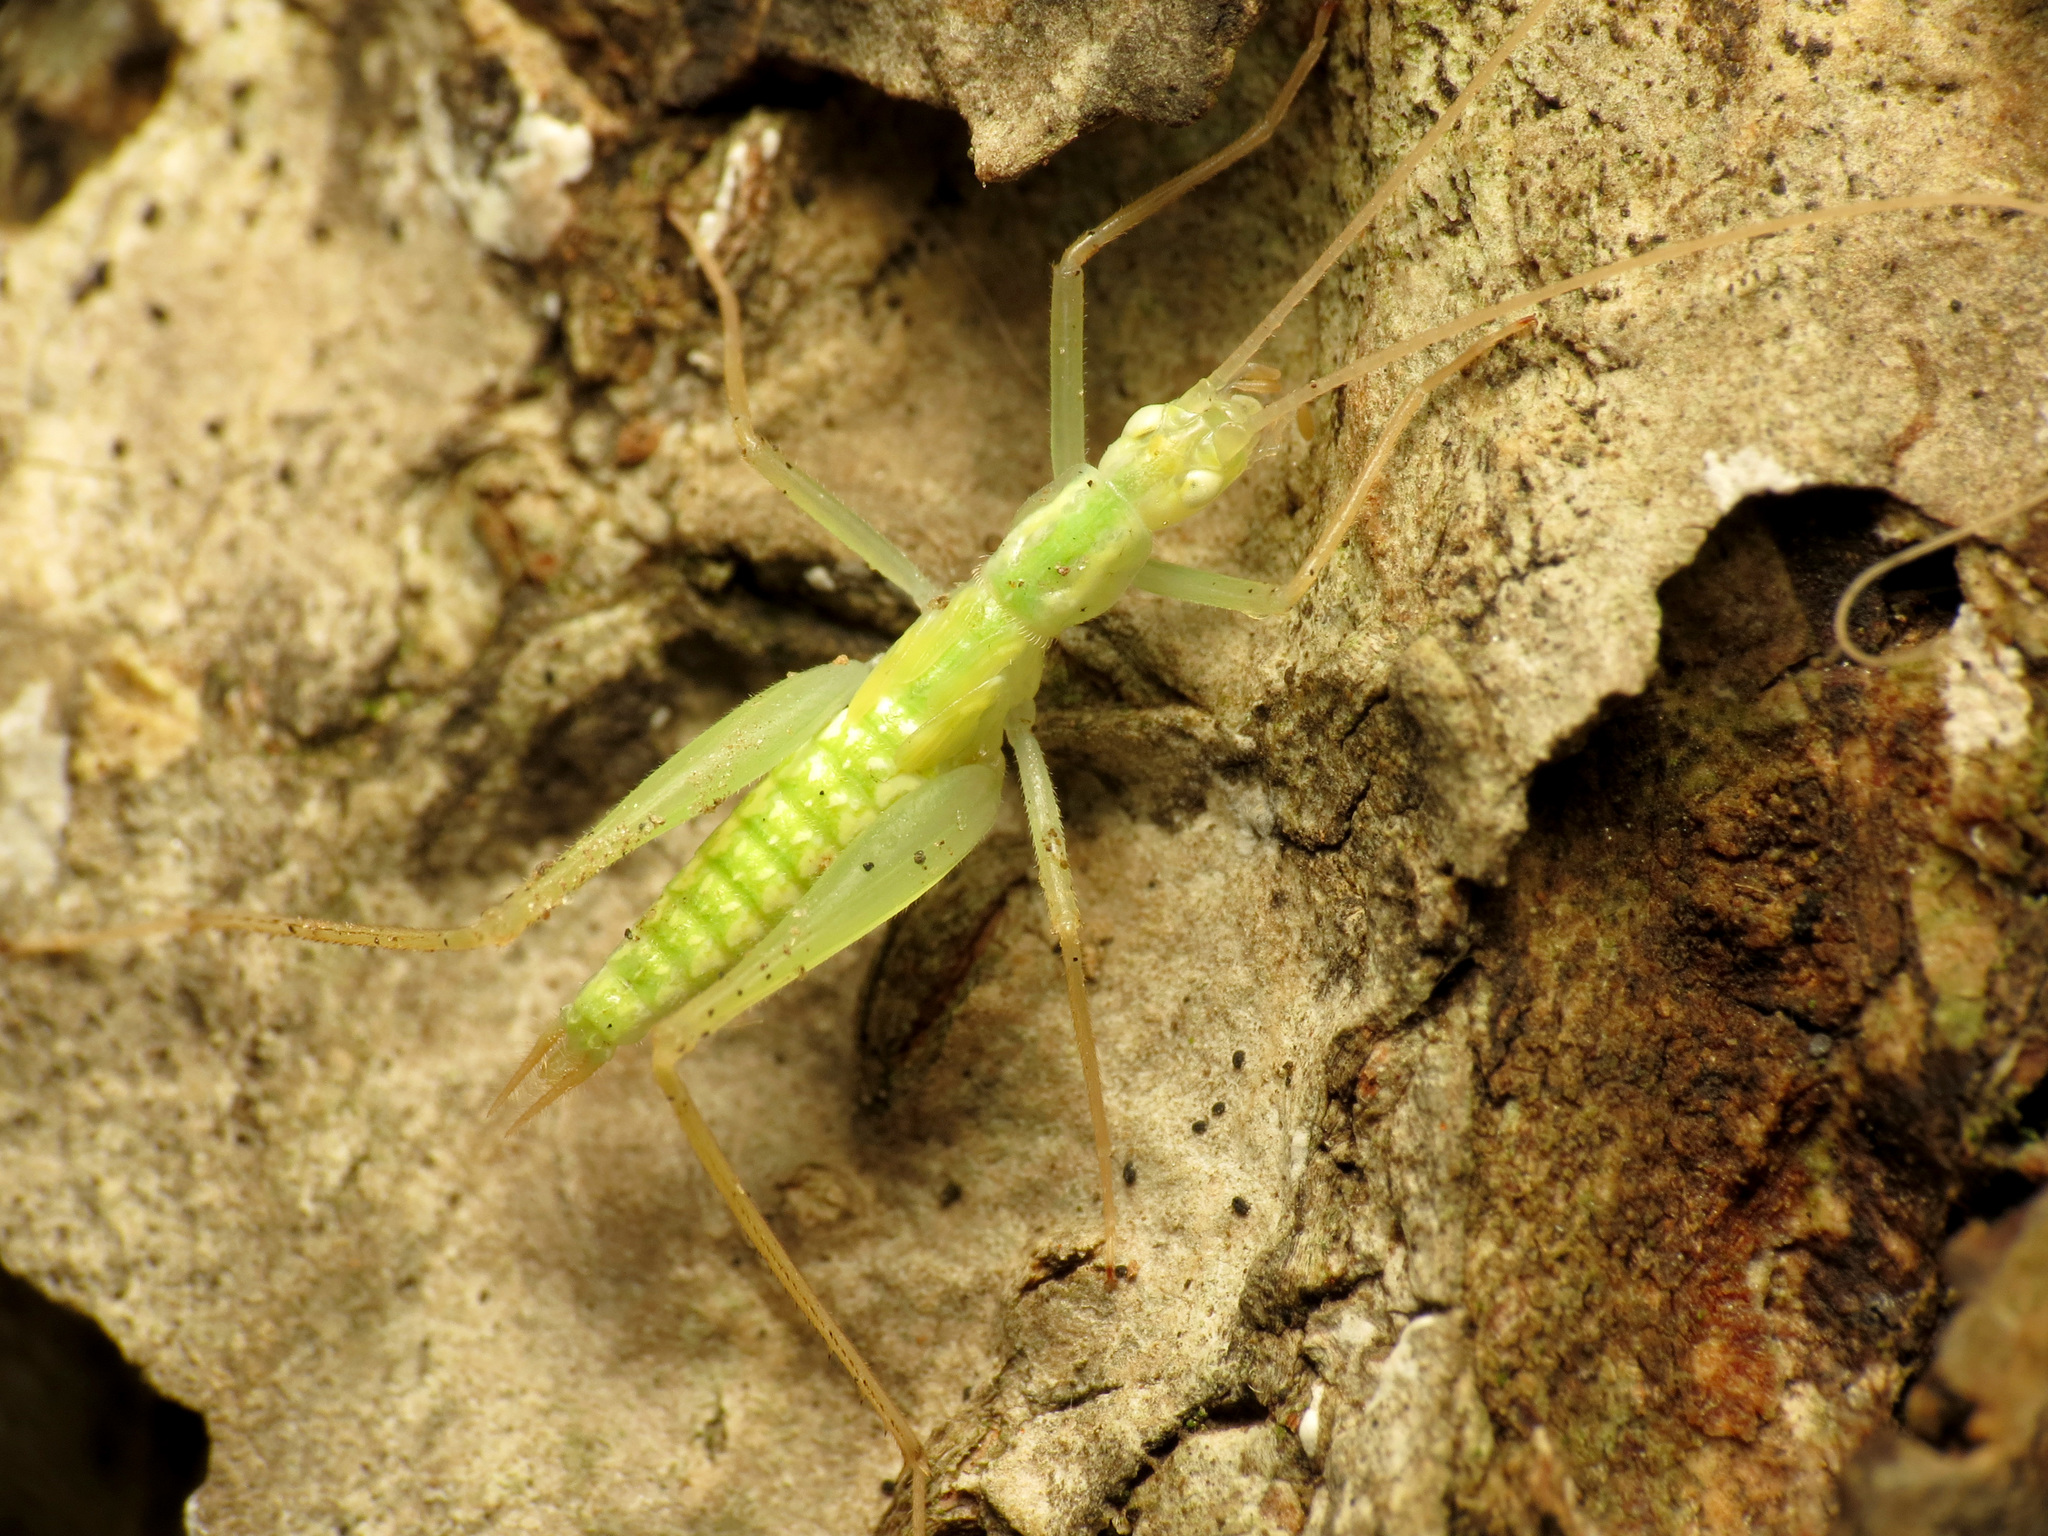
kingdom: Animalia
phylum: Arthropoda
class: Insecta
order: Orthoptera
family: Gryllidae
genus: Oecanthus
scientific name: Oecanthus
